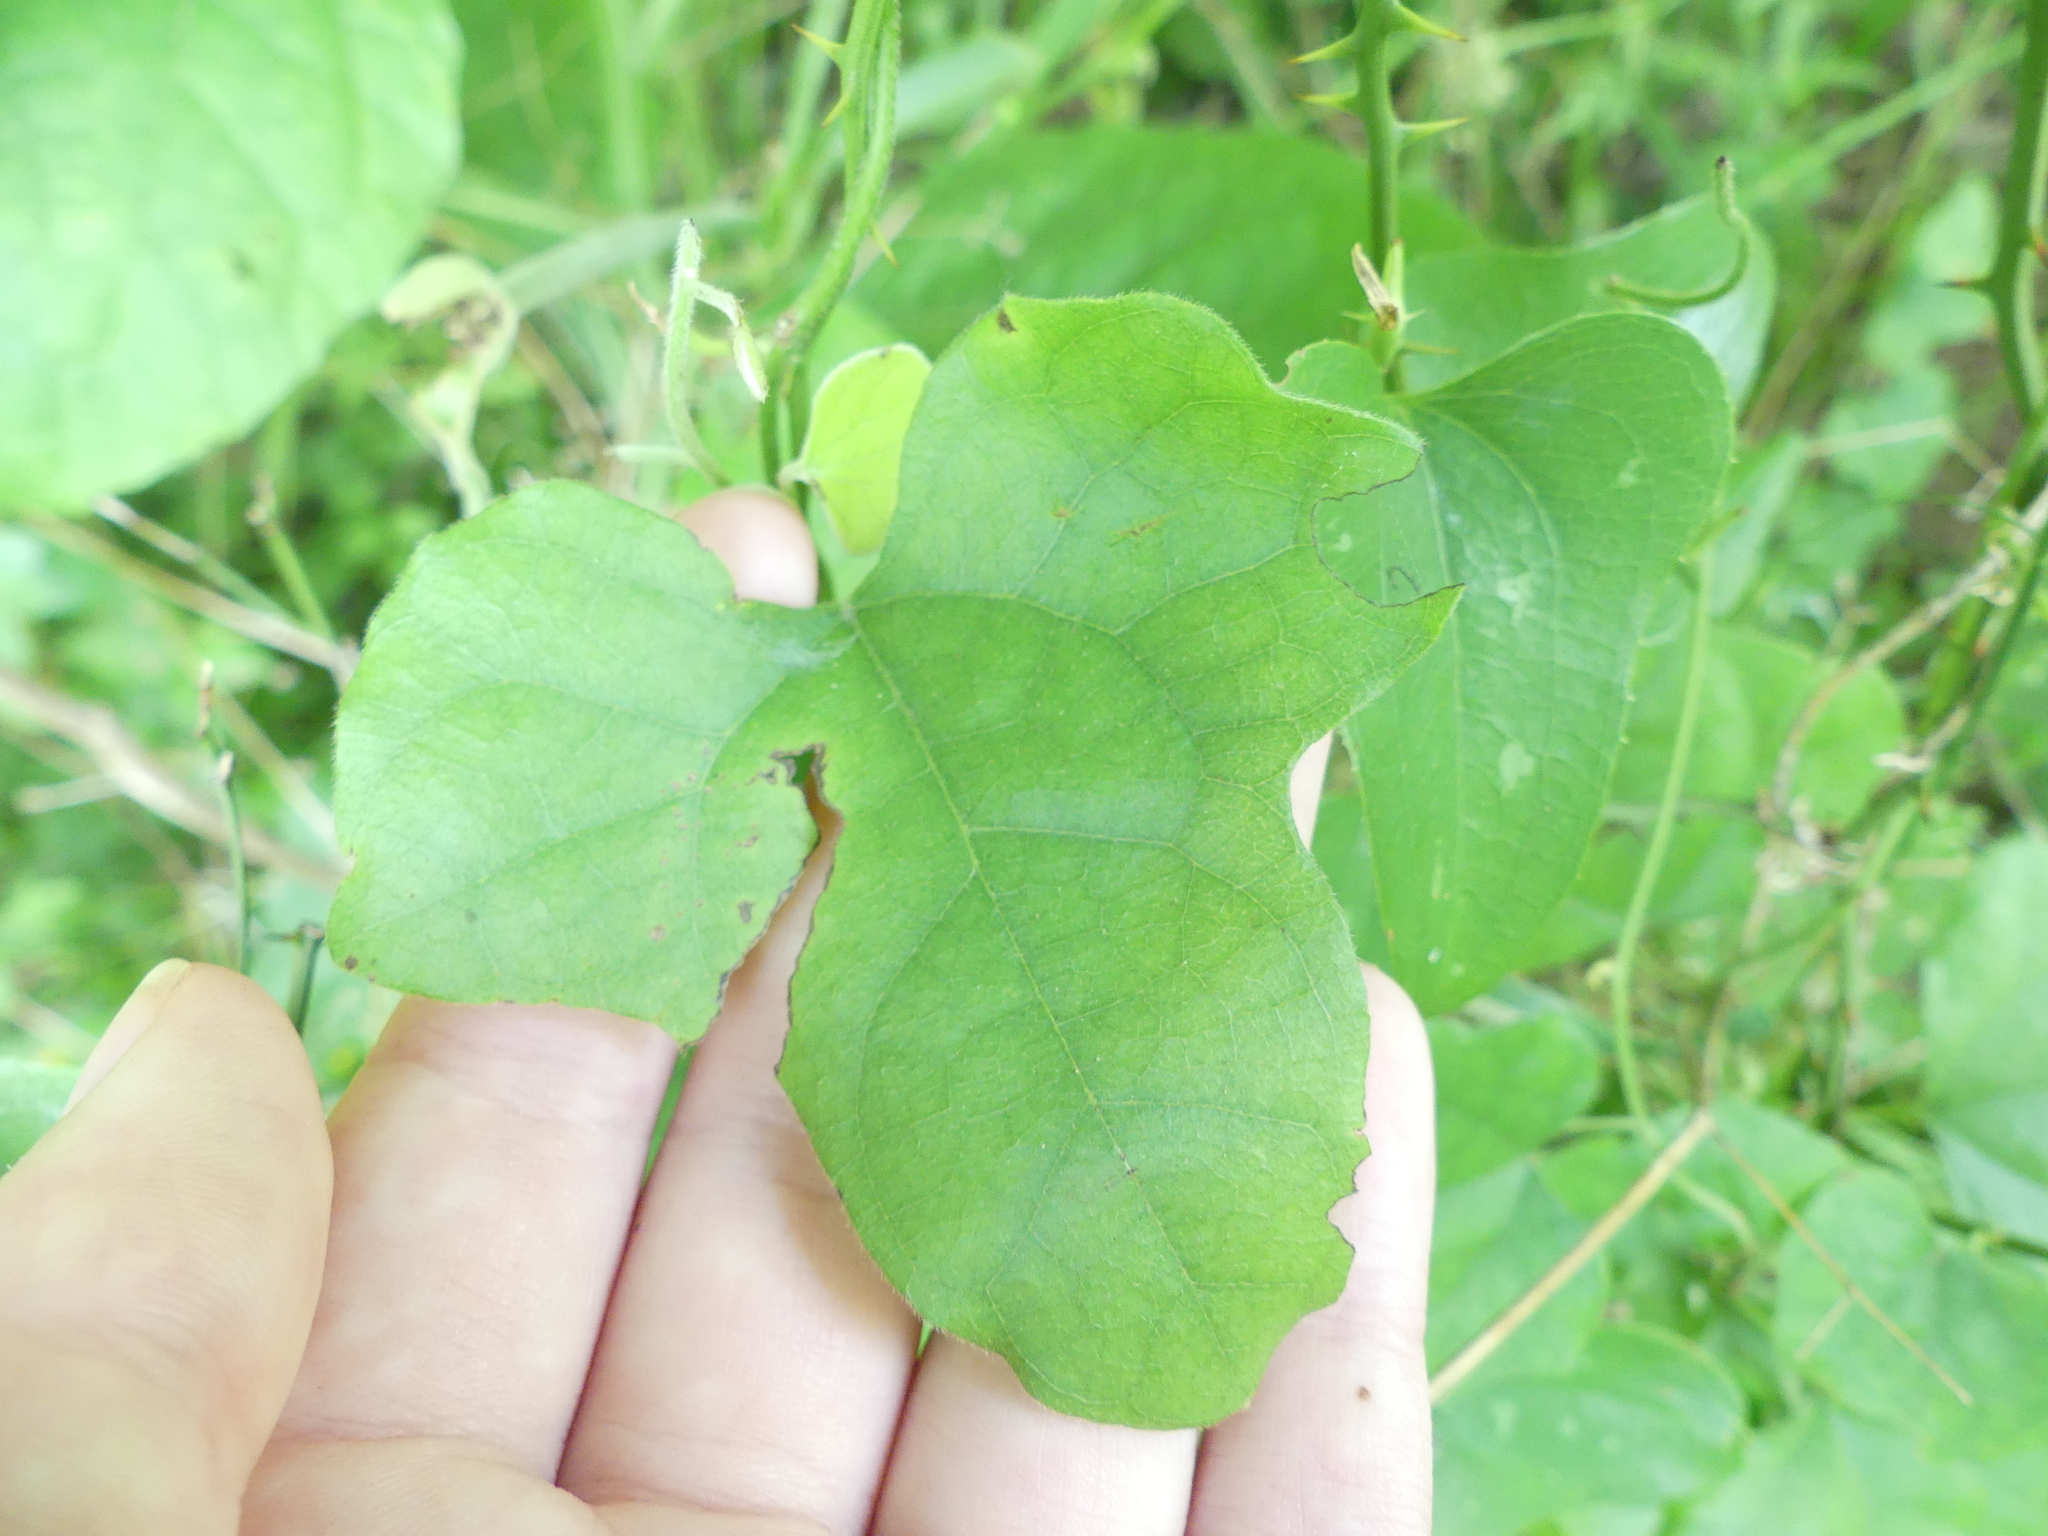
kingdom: Plantae
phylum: Tracheophyta
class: Magnoliopsida
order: Ranunculales
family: Menispermaceae
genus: Cocculus
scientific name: Cocculus carolinus
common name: Carolina moonseed
